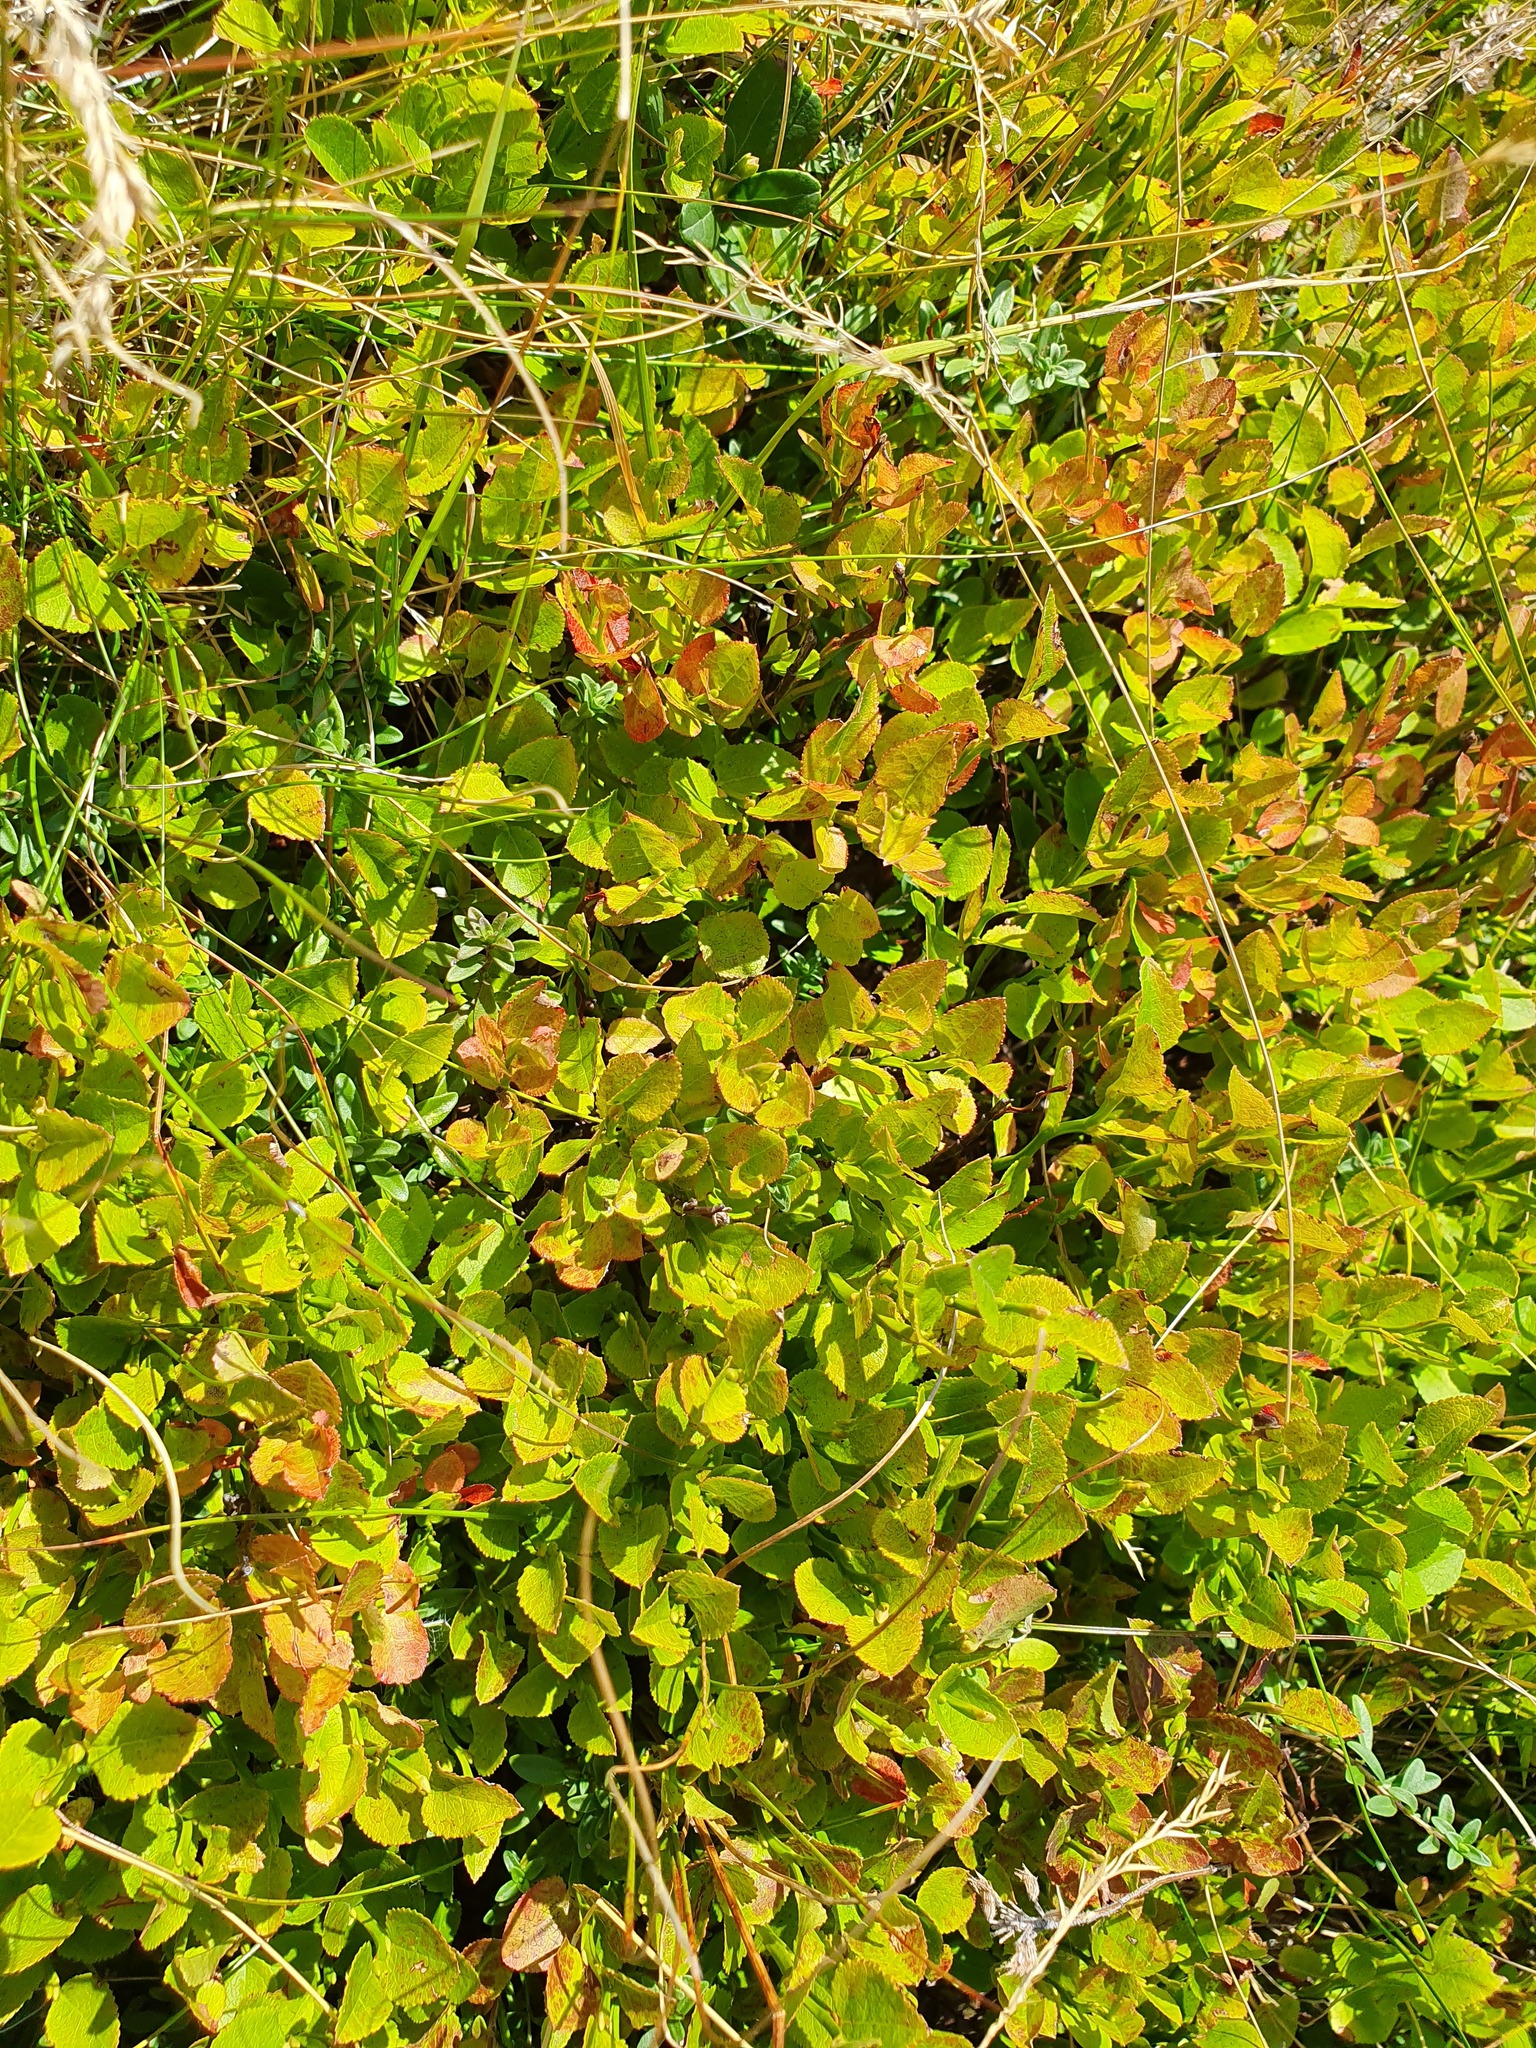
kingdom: Plantae
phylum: Tracheophyta
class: Magnoliopsida
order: Ericales
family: Ericaceae
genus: Vaccinium
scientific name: Vaccinium myrtillus
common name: Bilberry
